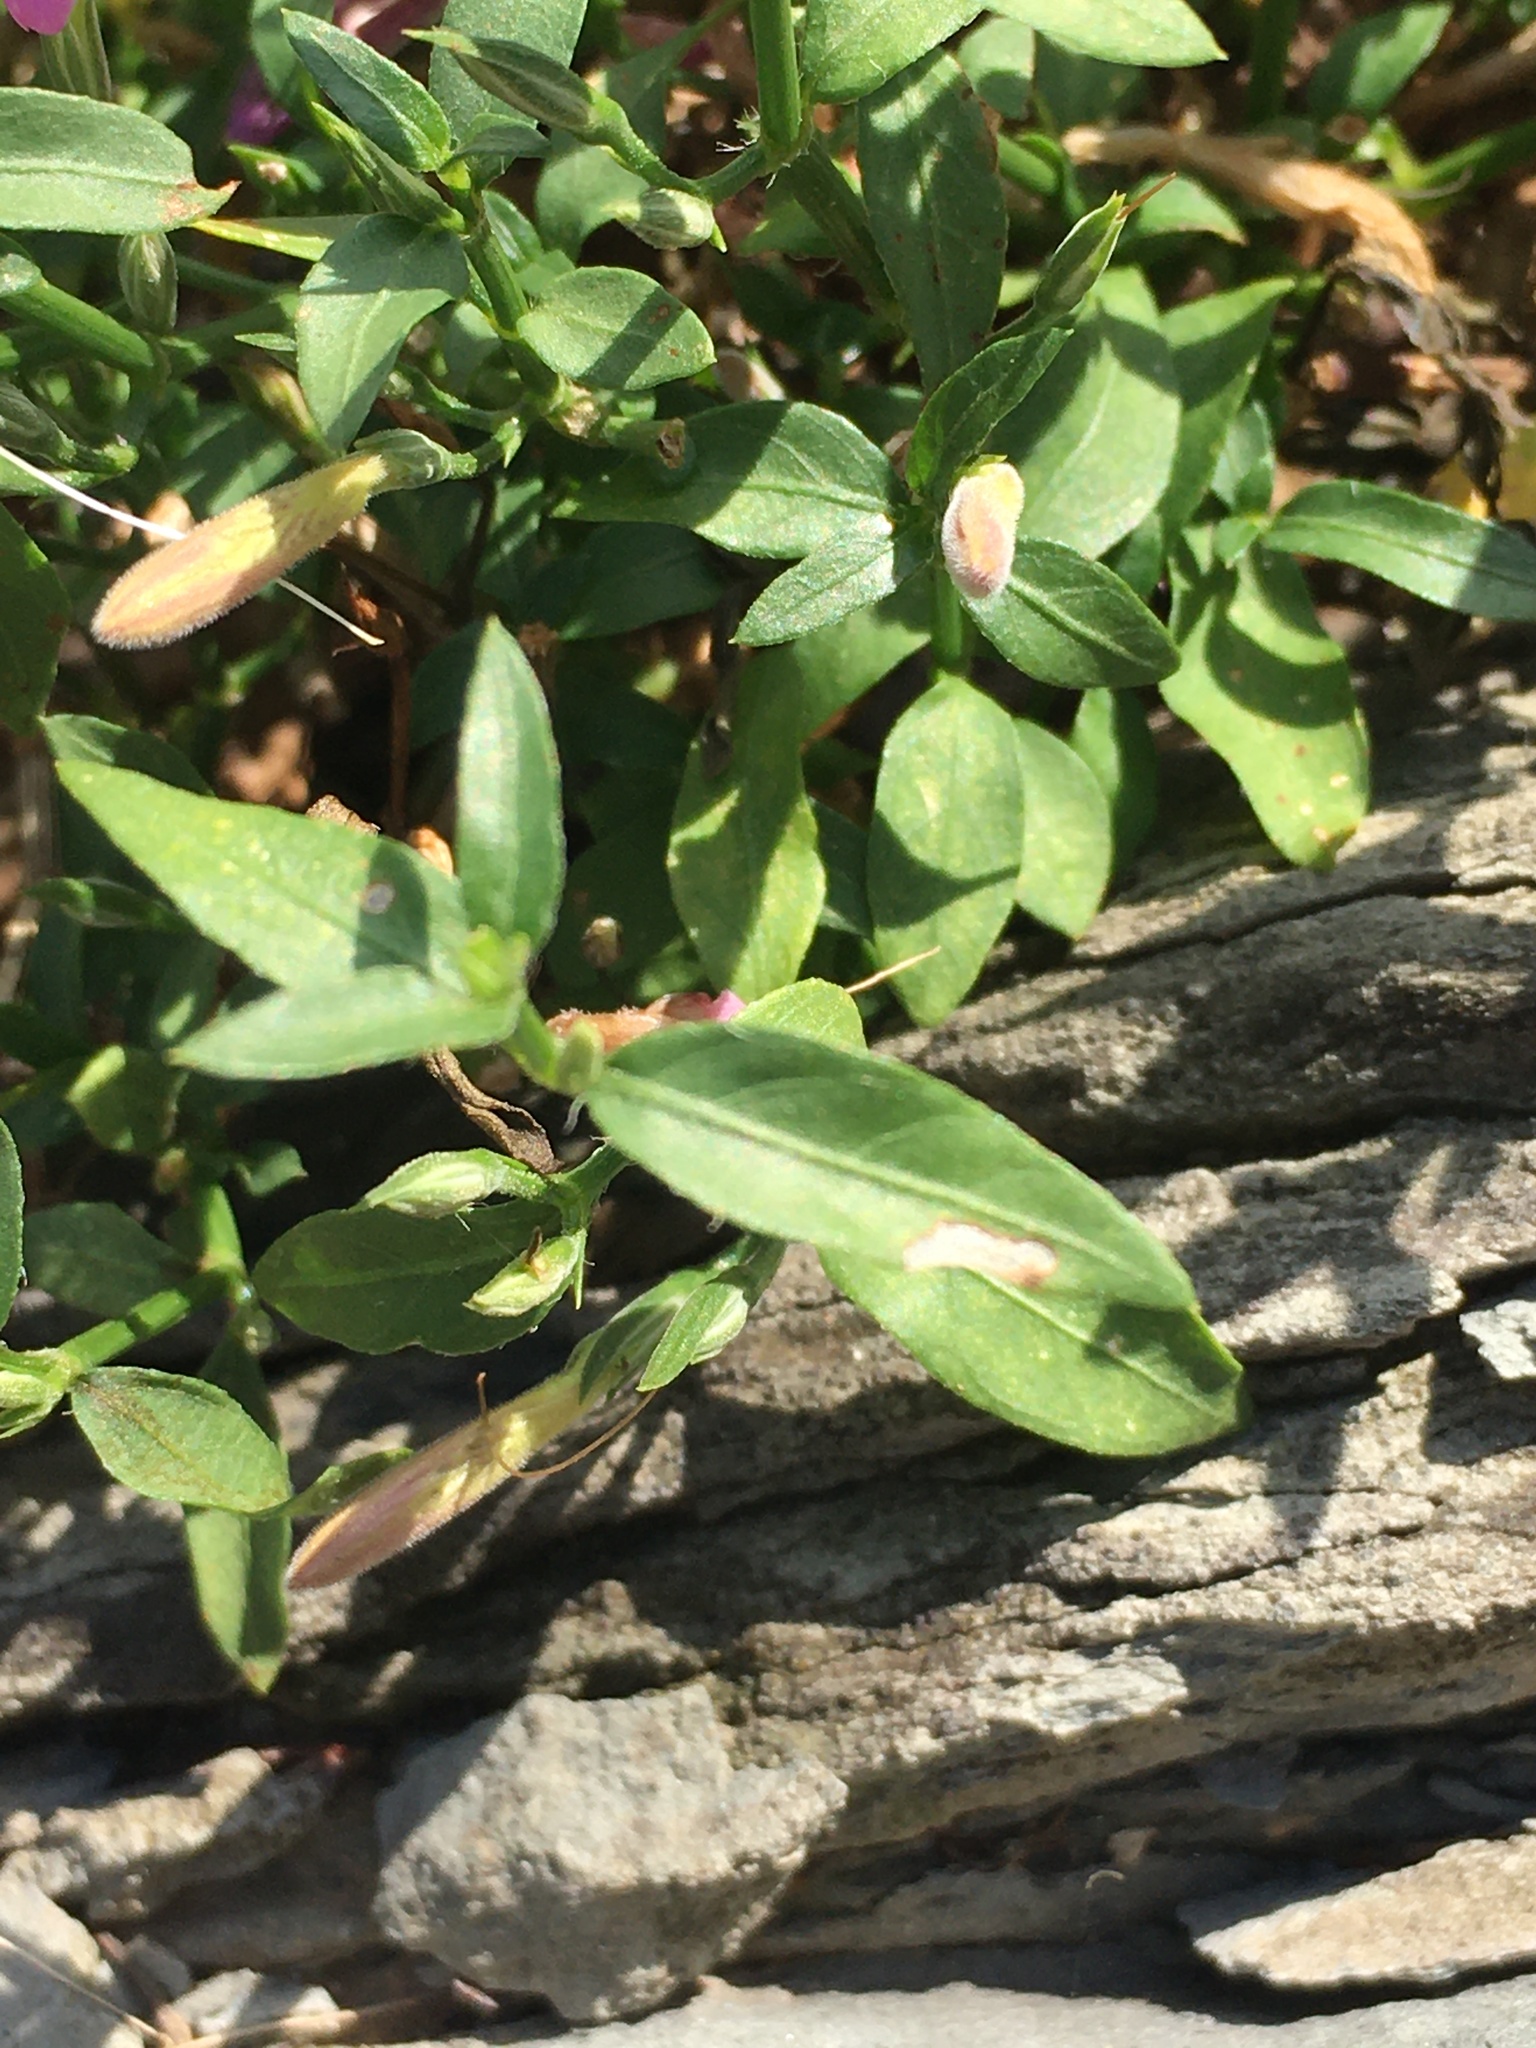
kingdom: Plantae
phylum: Tracheophyta
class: Magnoliopsida
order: Lamiales
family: Acanthaceae
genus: Dicliptera
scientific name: Dicliptera cernua
